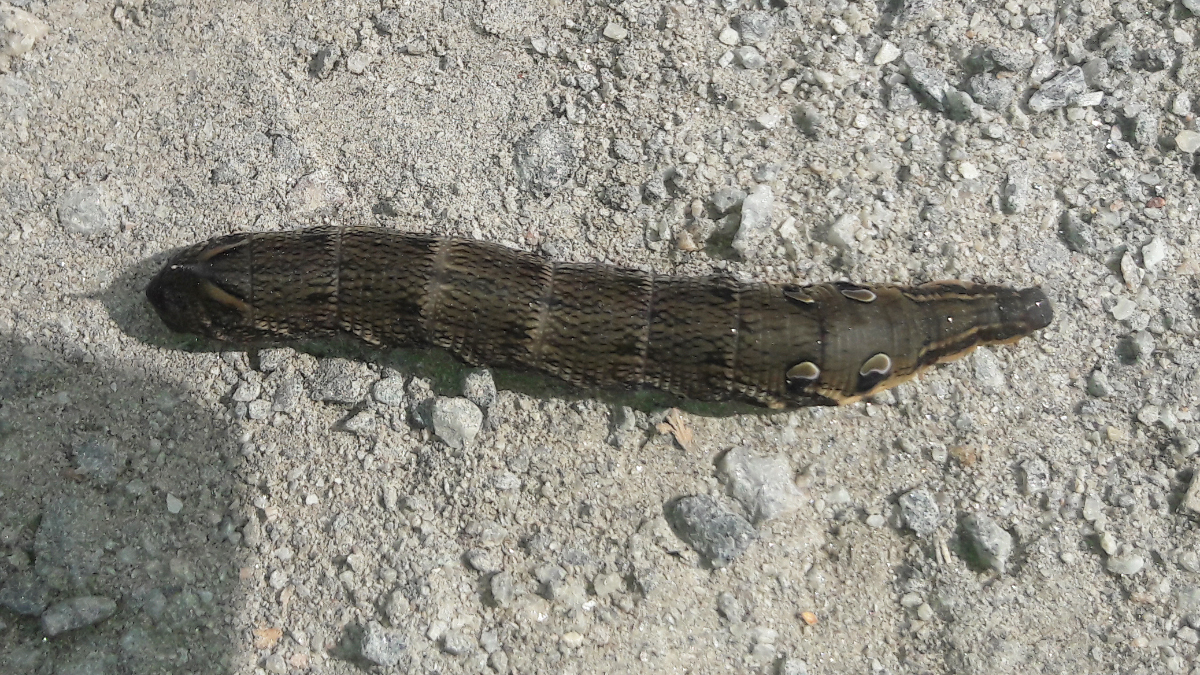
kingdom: Animalia
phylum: Arthropoda
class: Insecta
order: Lepidoptera
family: Sphingidae
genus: Deilephila
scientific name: Deilephila elpenor
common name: Elephant hawk-moth
